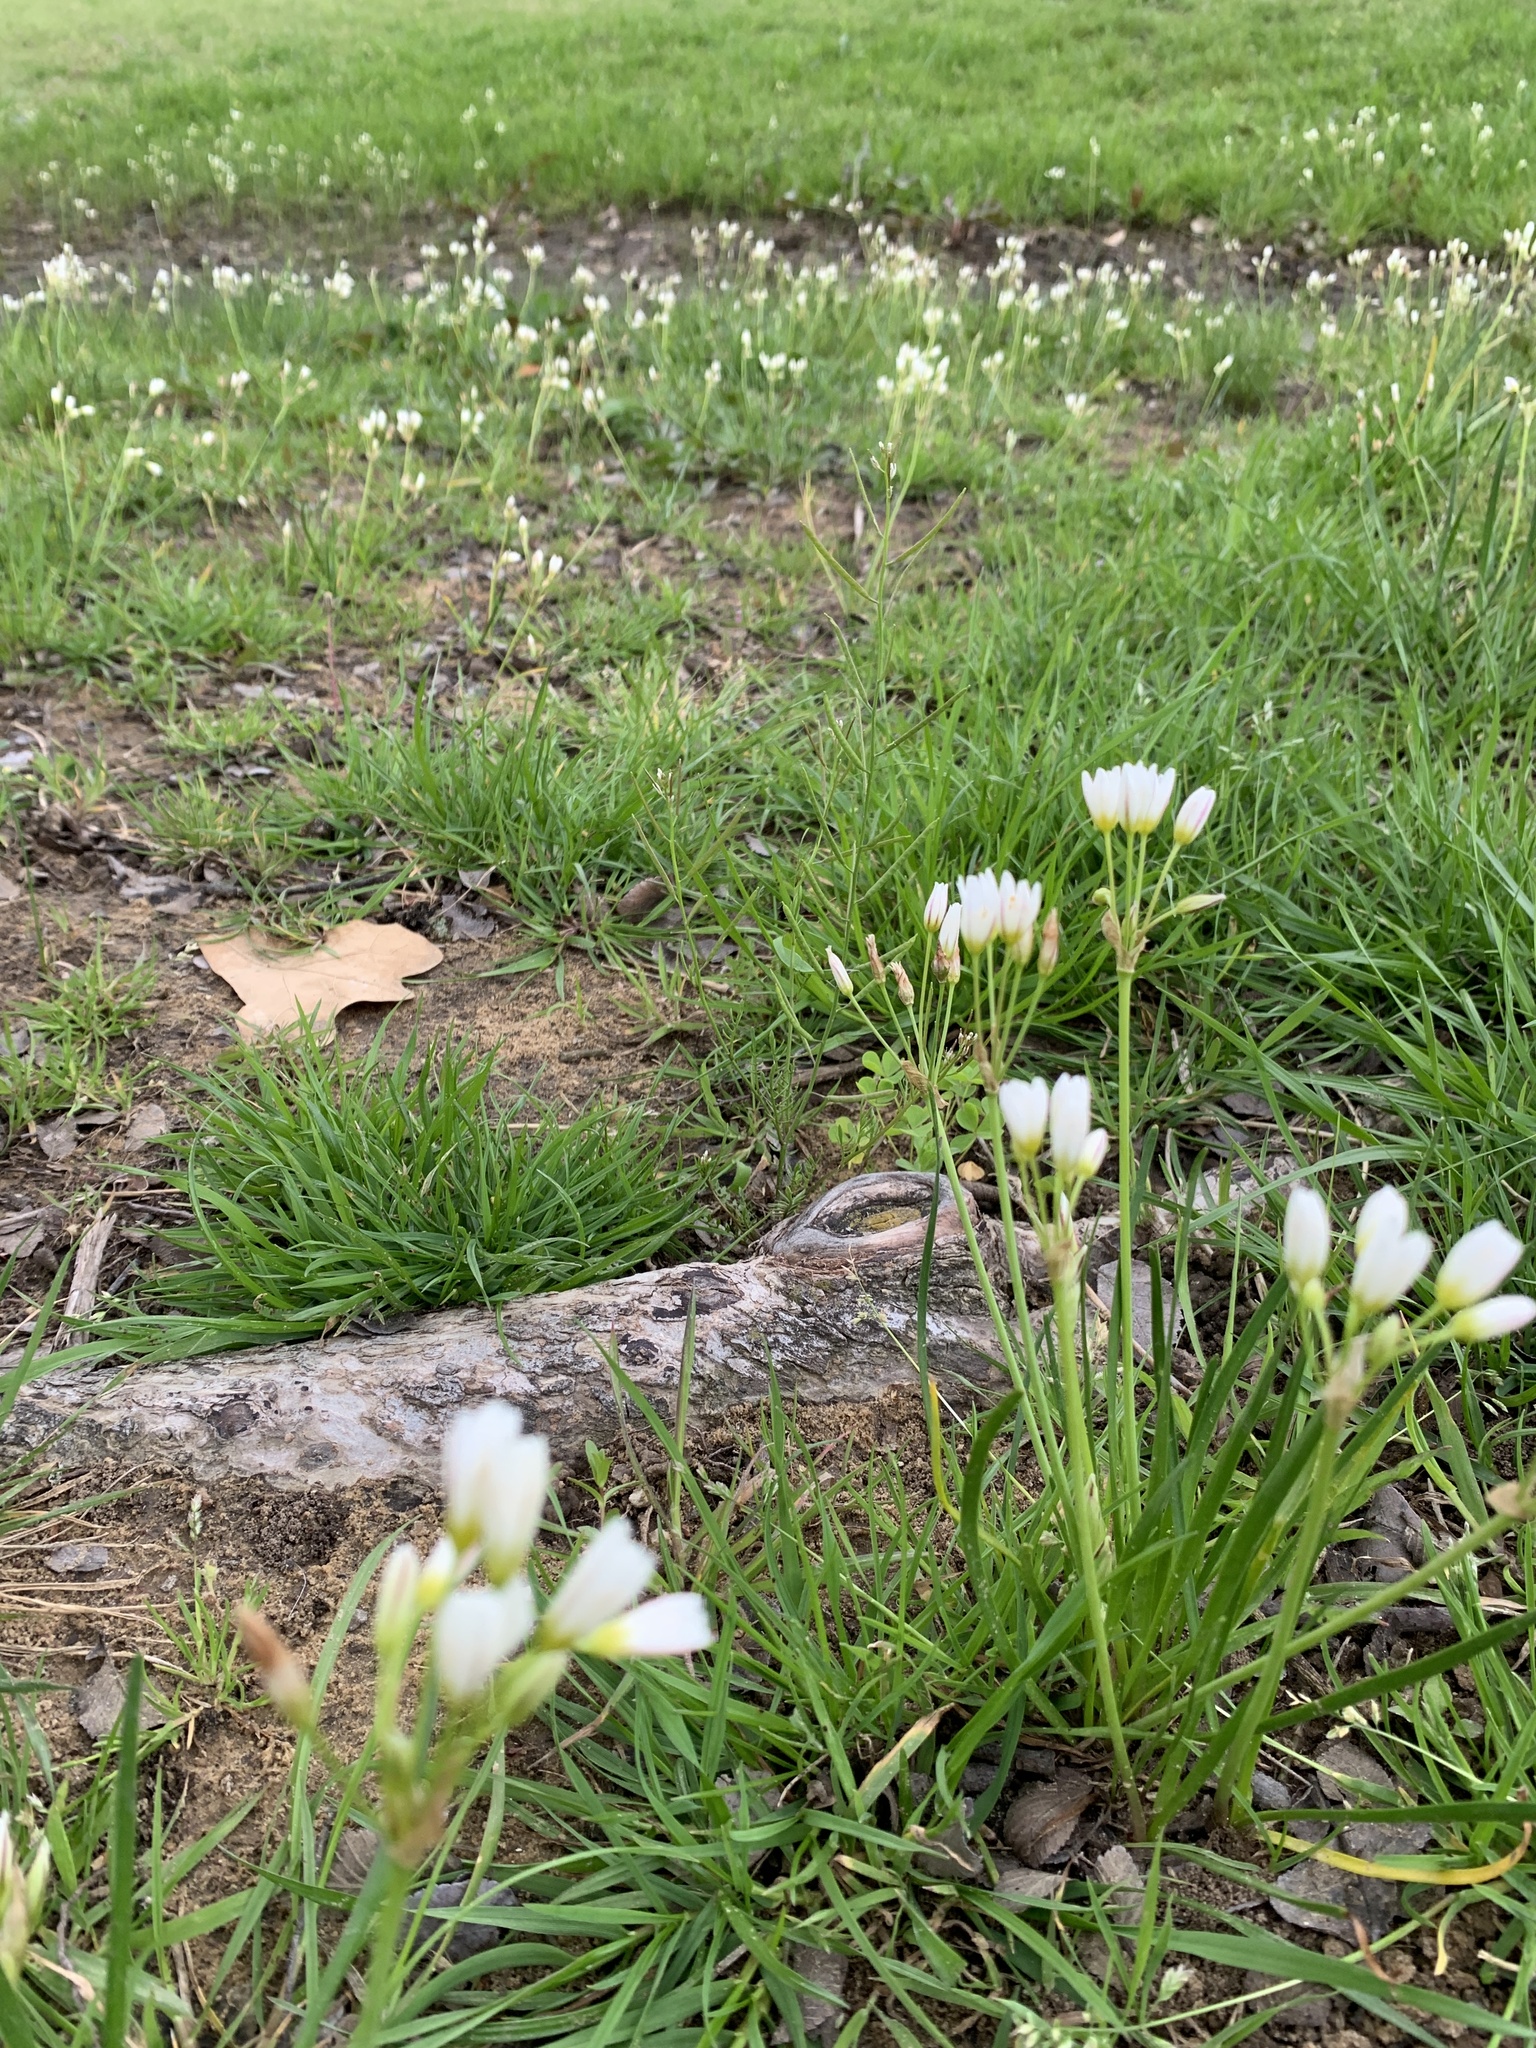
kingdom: Plantae
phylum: Tracheophyta
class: Liliopsida
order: Asparagales
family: Amaryllidaceae
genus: Nothoscordum
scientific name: Nothoscordum bivalve
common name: Crow-poison
